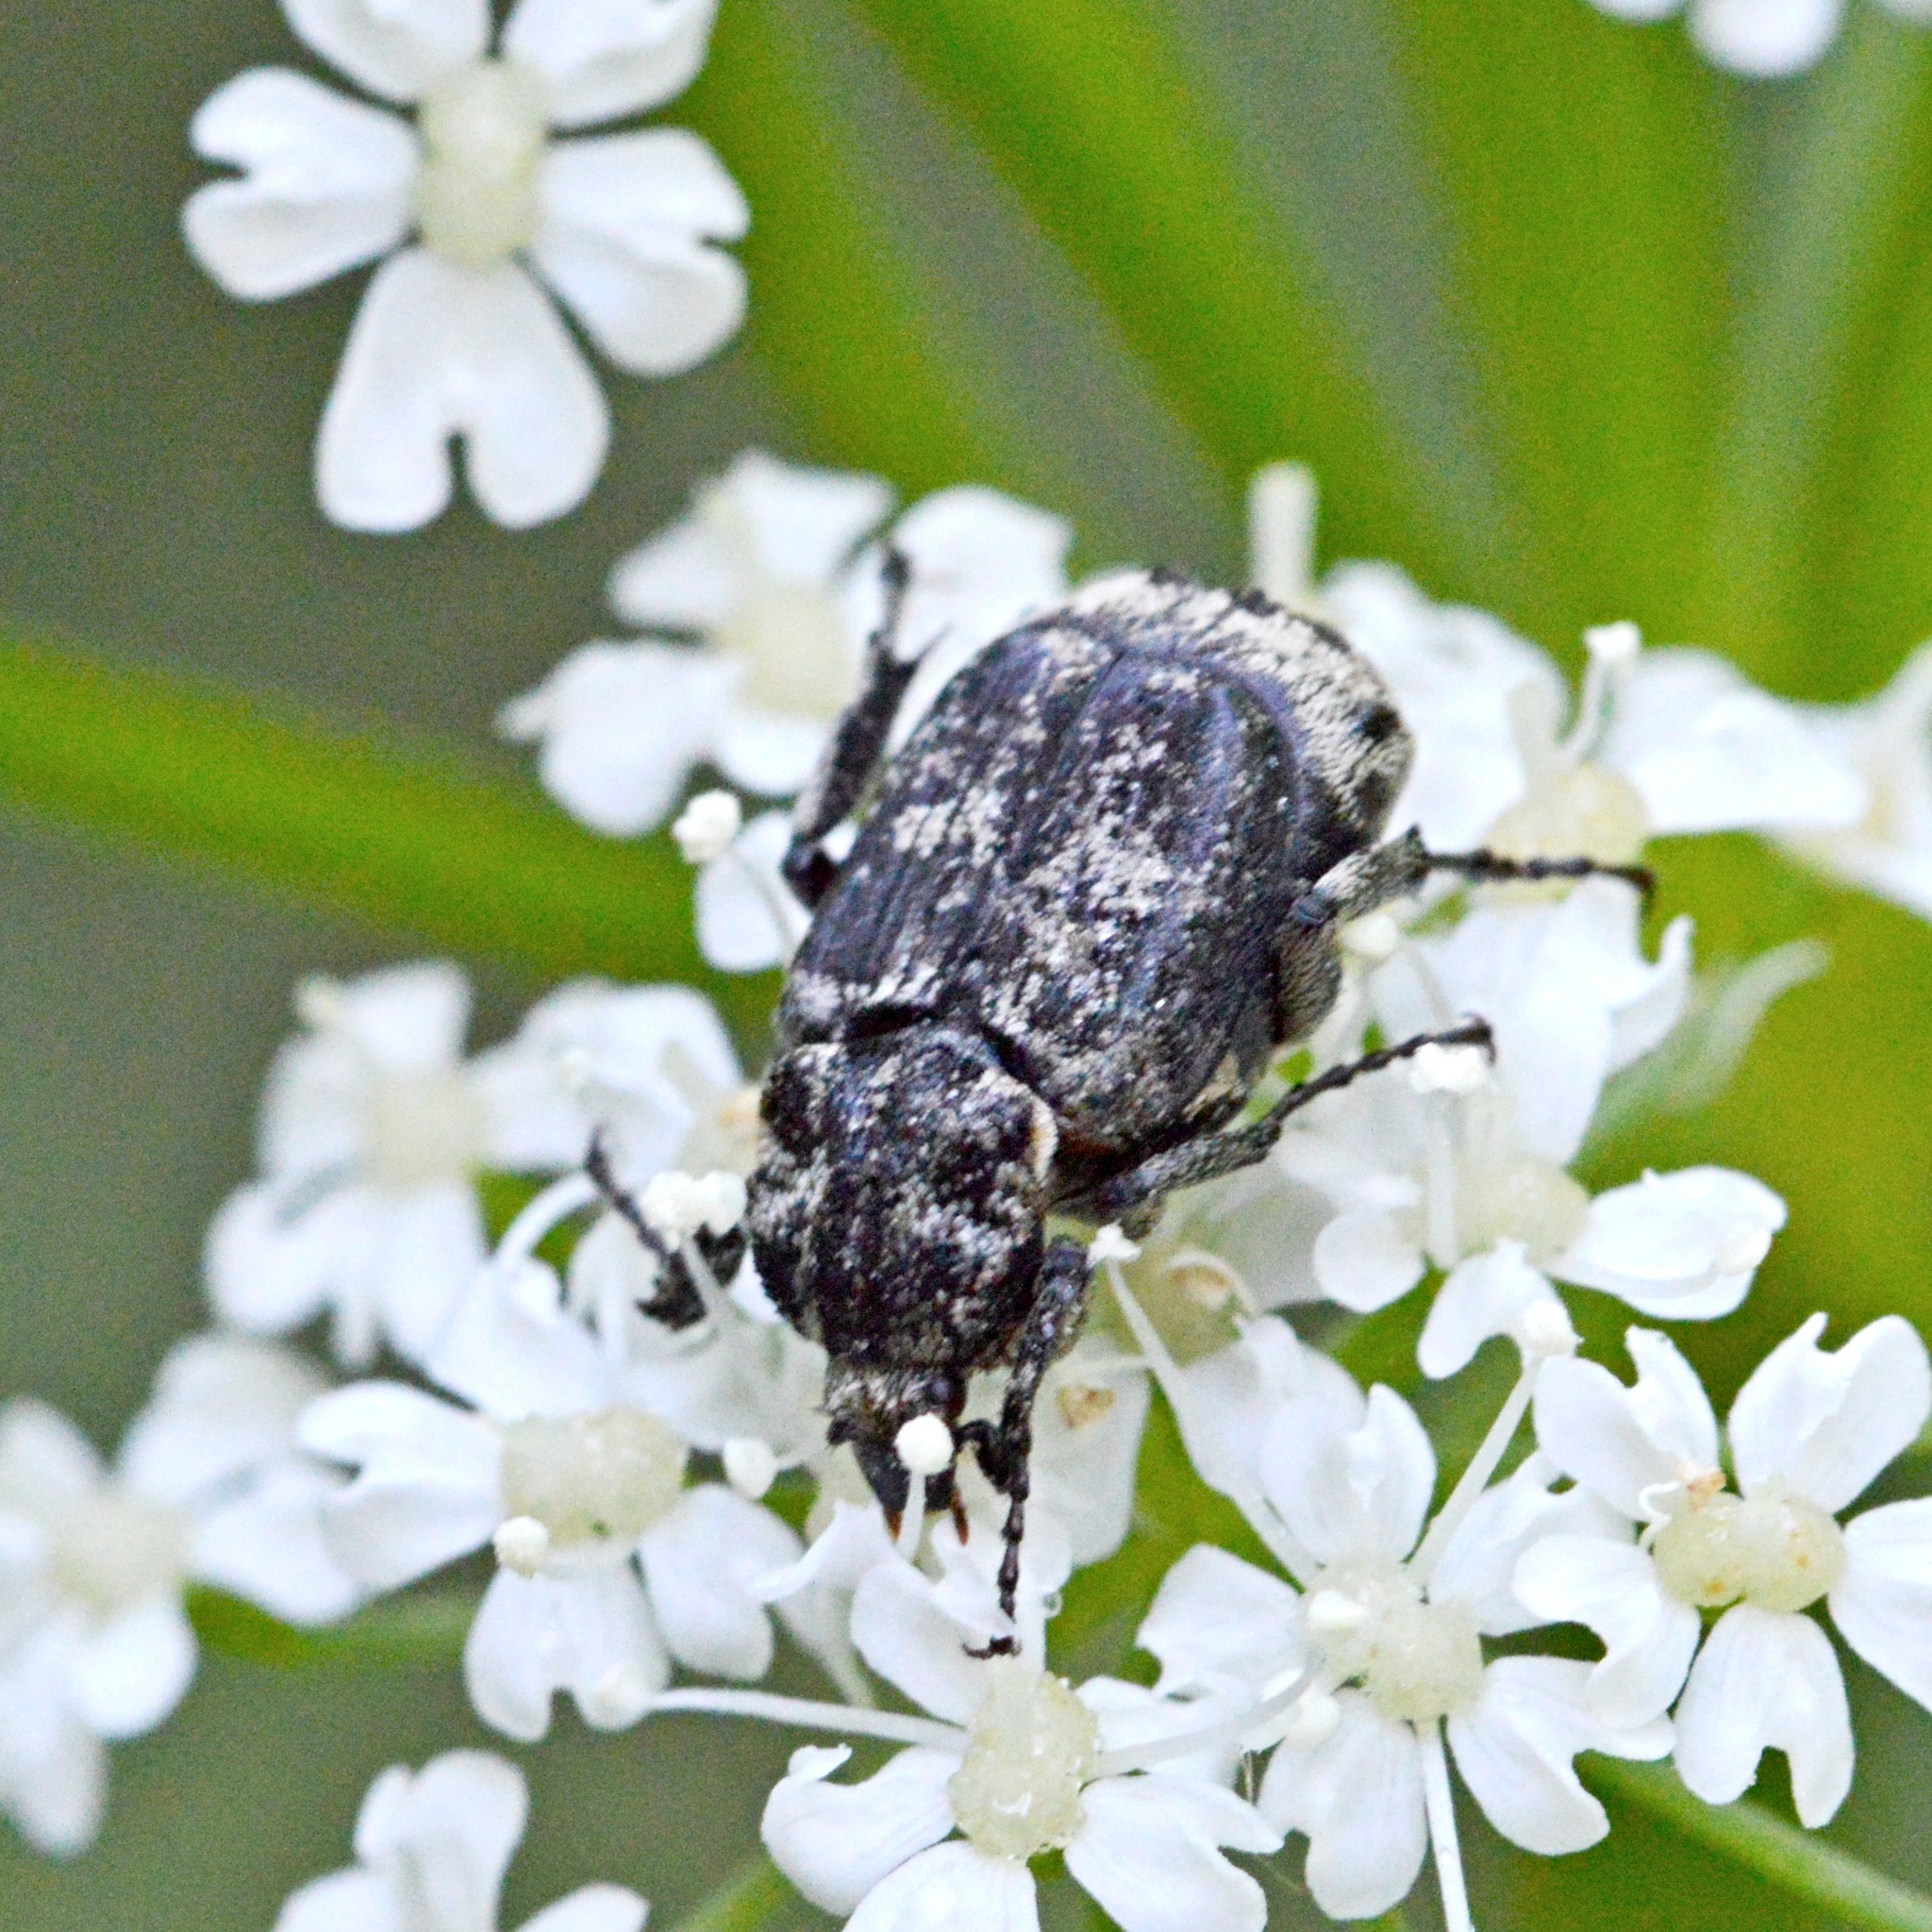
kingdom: Animalia
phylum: Arthropoda
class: Insecta
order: Coleoptera
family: Scarabaeidae
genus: Valgus
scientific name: Valgus hemipterus
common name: Bug flower chafer
